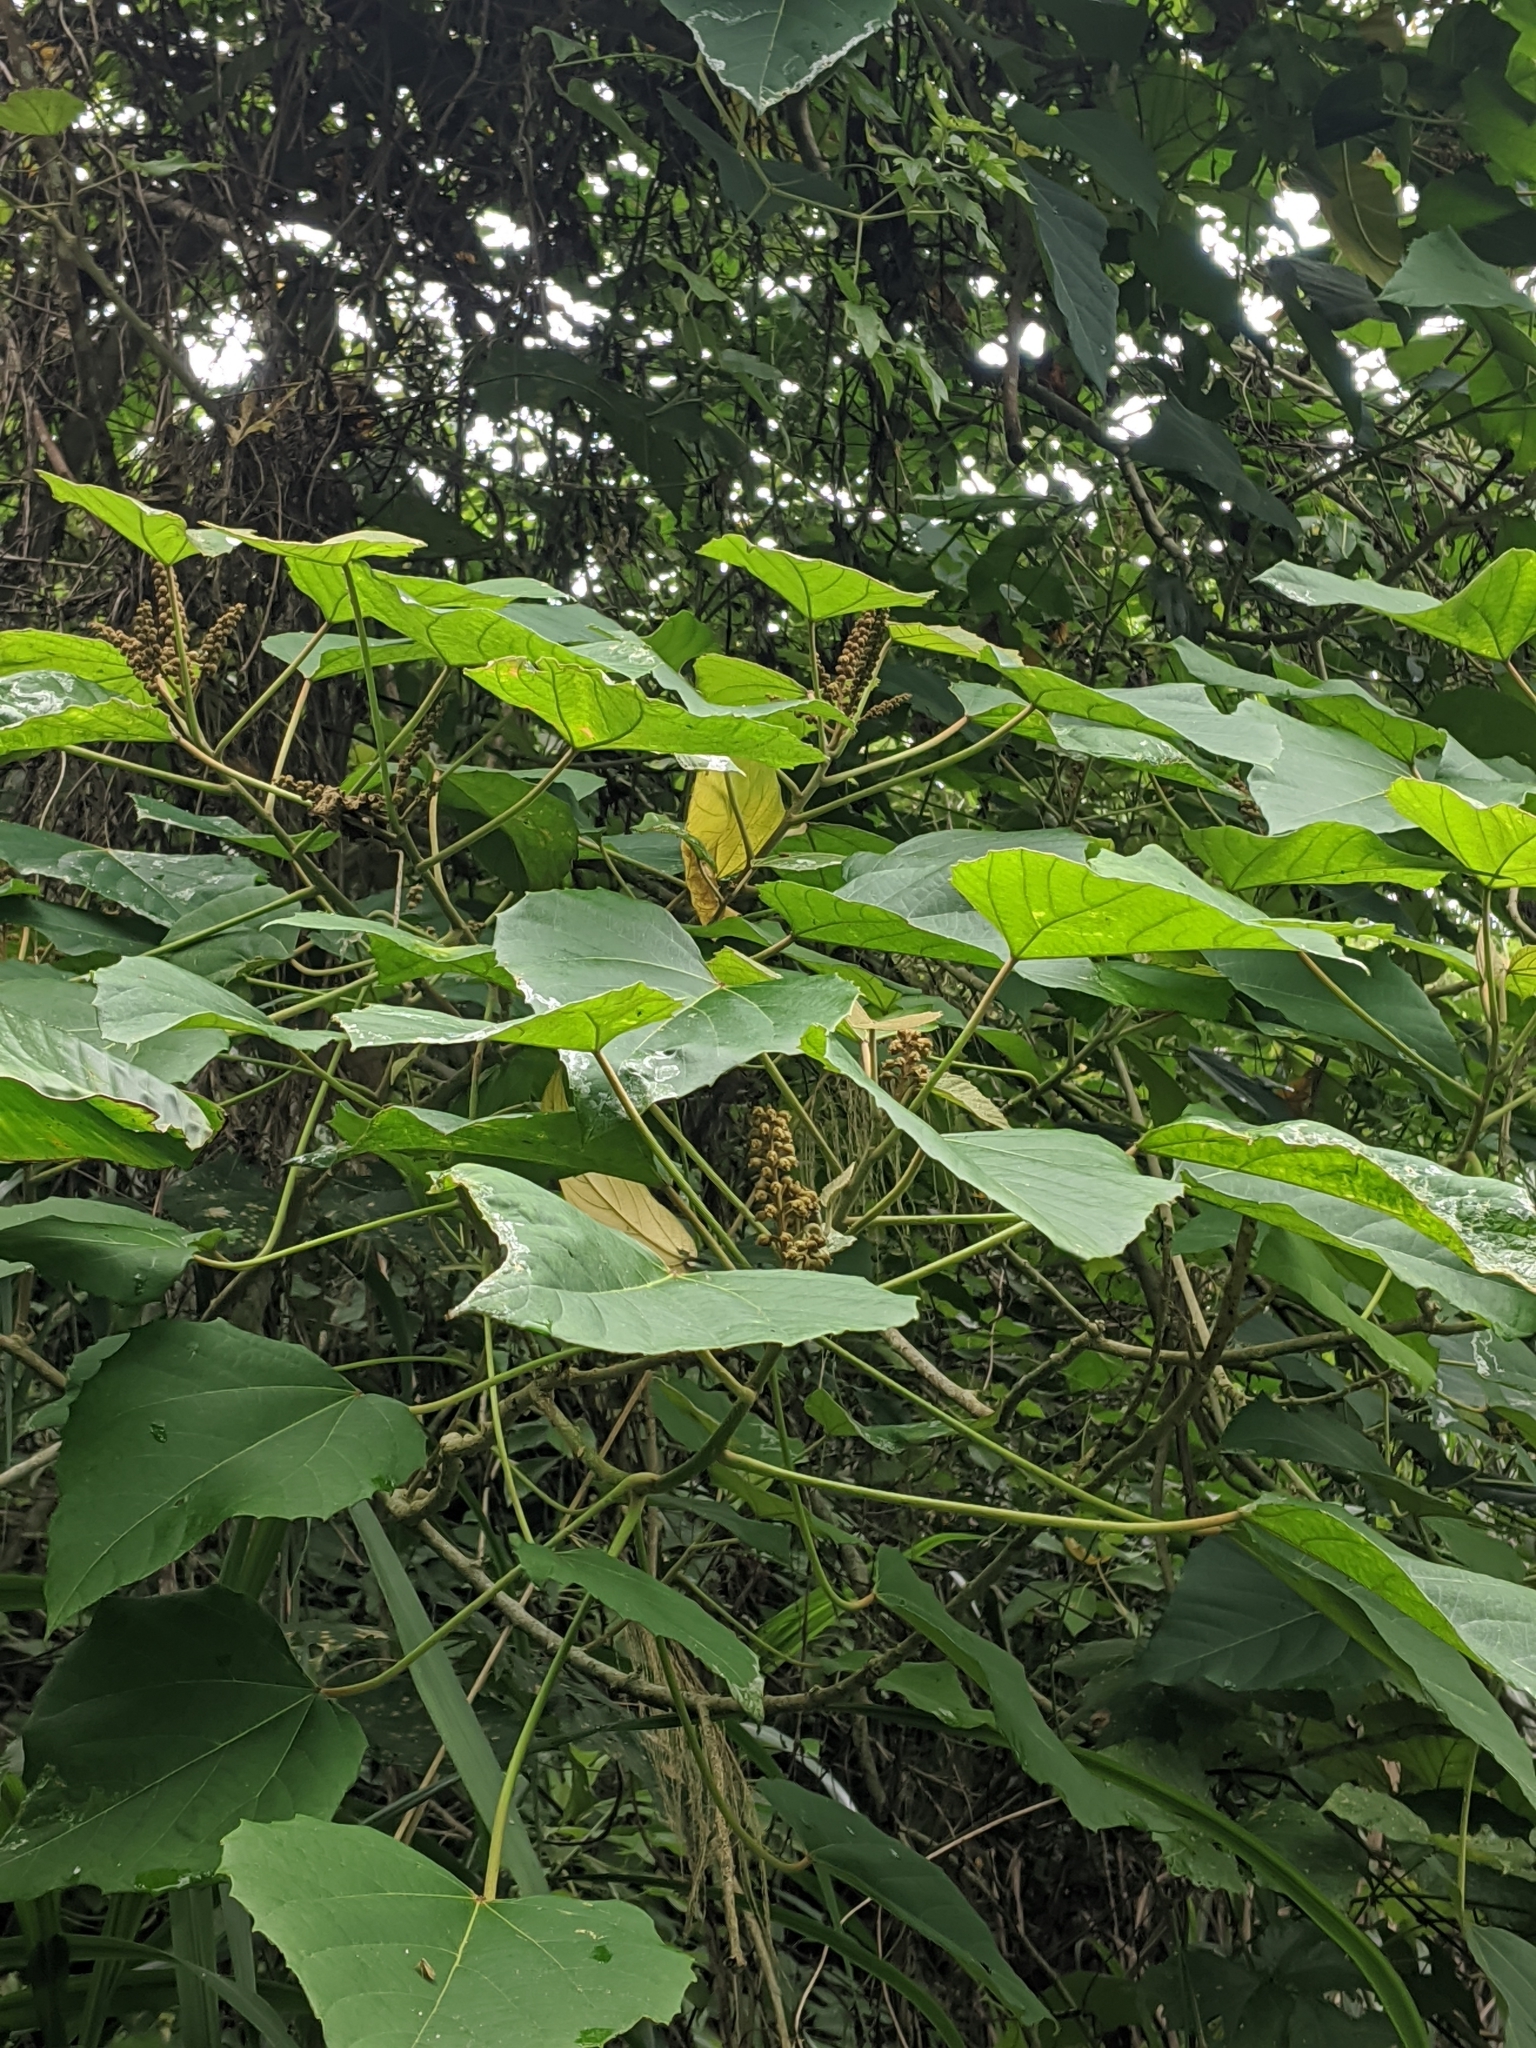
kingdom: Plantae
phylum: Tracheophyta
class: Magnoliopsida
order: Malpighiales
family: Euphorbiaceae
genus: Melanolepis
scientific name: Melanolepis multiglandulosa
